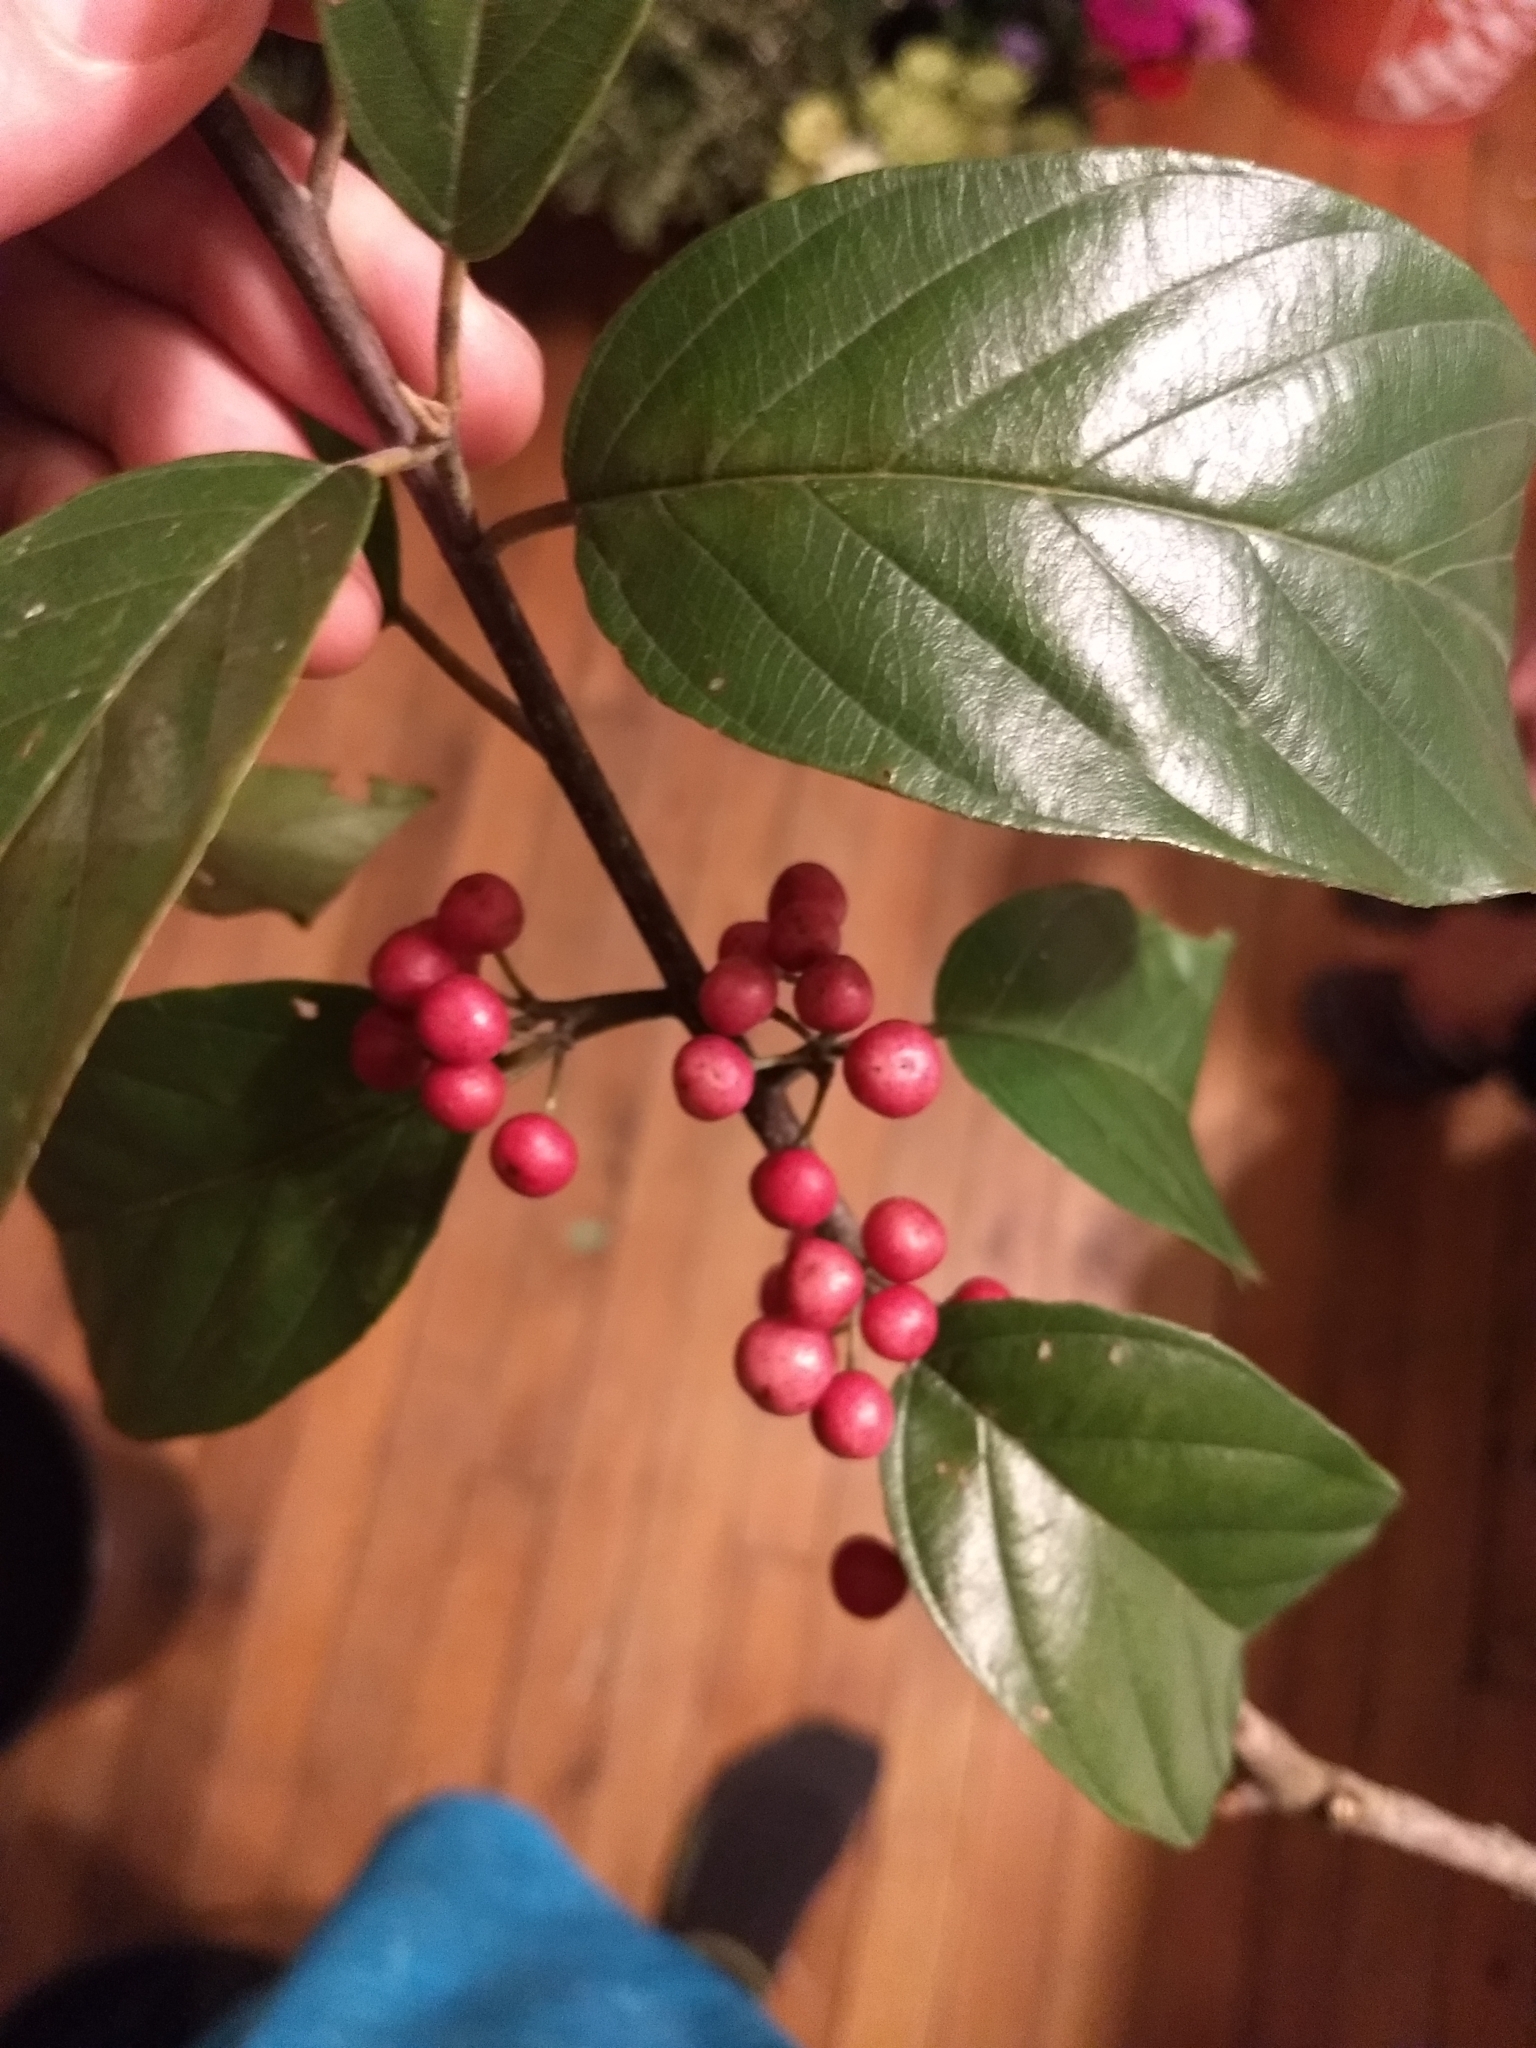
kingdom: Plantae
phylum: Tracheophyta
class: Magnoliopsida
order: Rosales
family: Rhamnaceae
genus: Frangula
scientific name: Frangula caroliniana
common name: Carolina buckthorn
